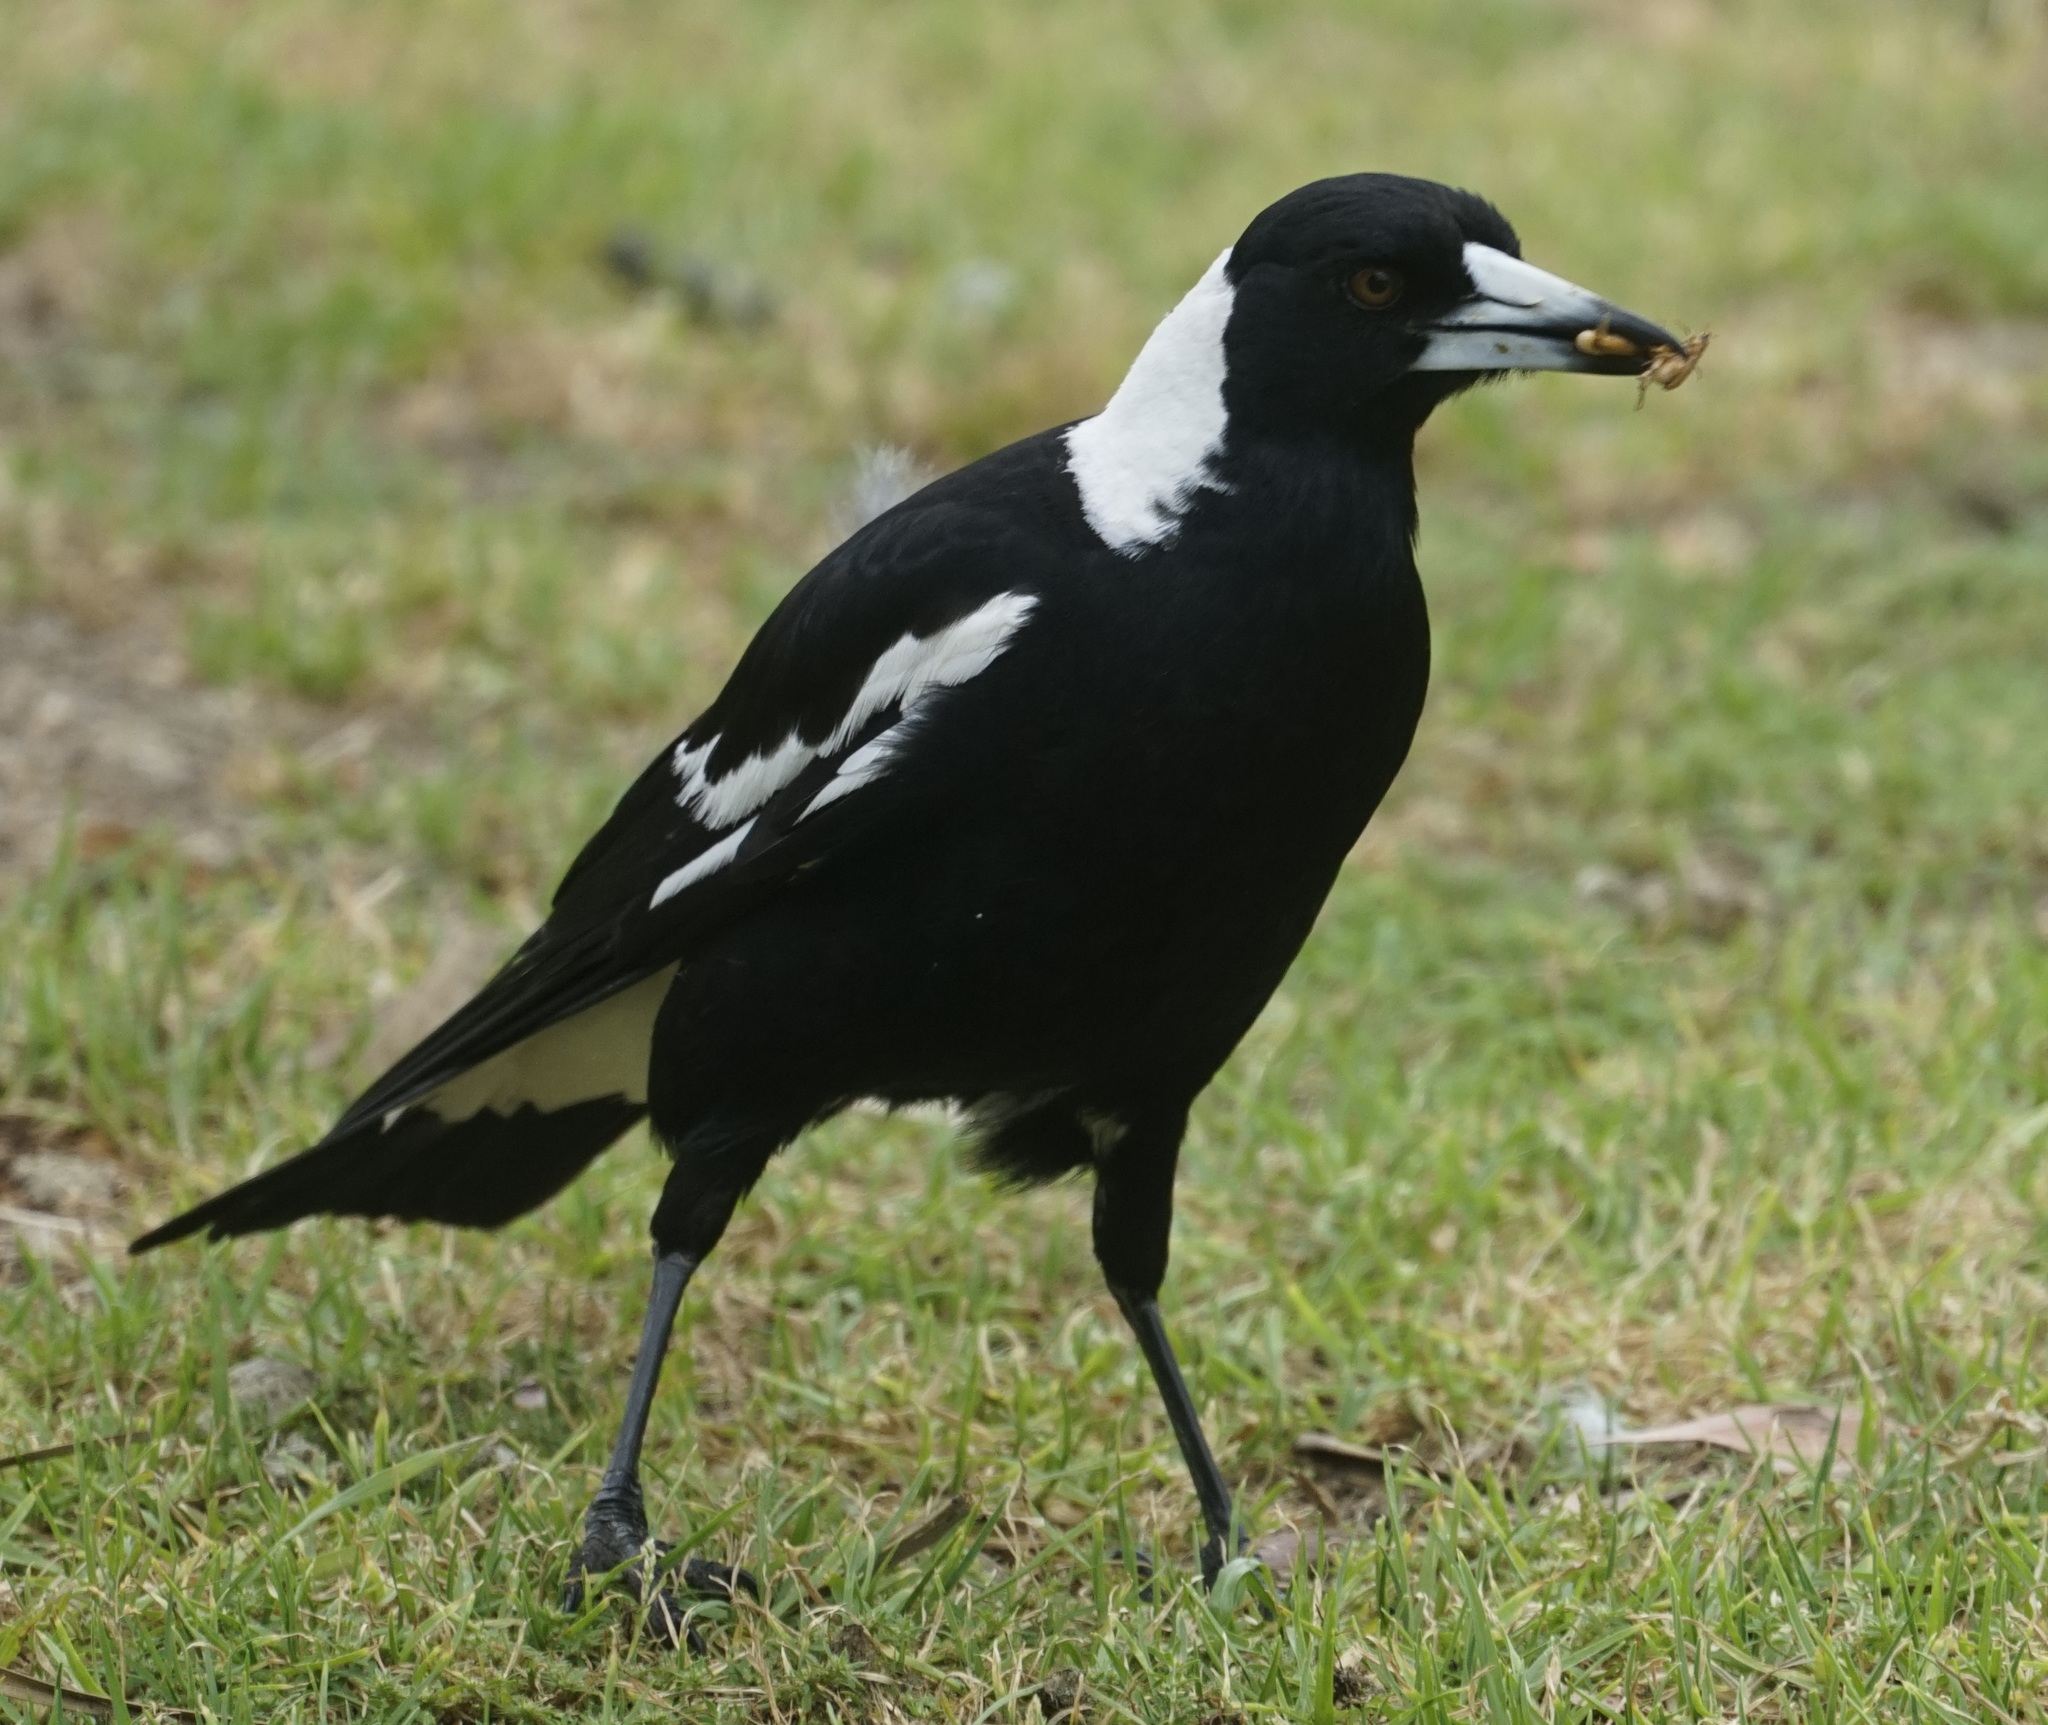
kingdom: Animalia
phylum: Chordata
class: Aves
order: Passeriformes
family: Cracticidae
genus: Gymnorhina
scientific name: Gymnorhina tibicen
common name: Australian magpie
